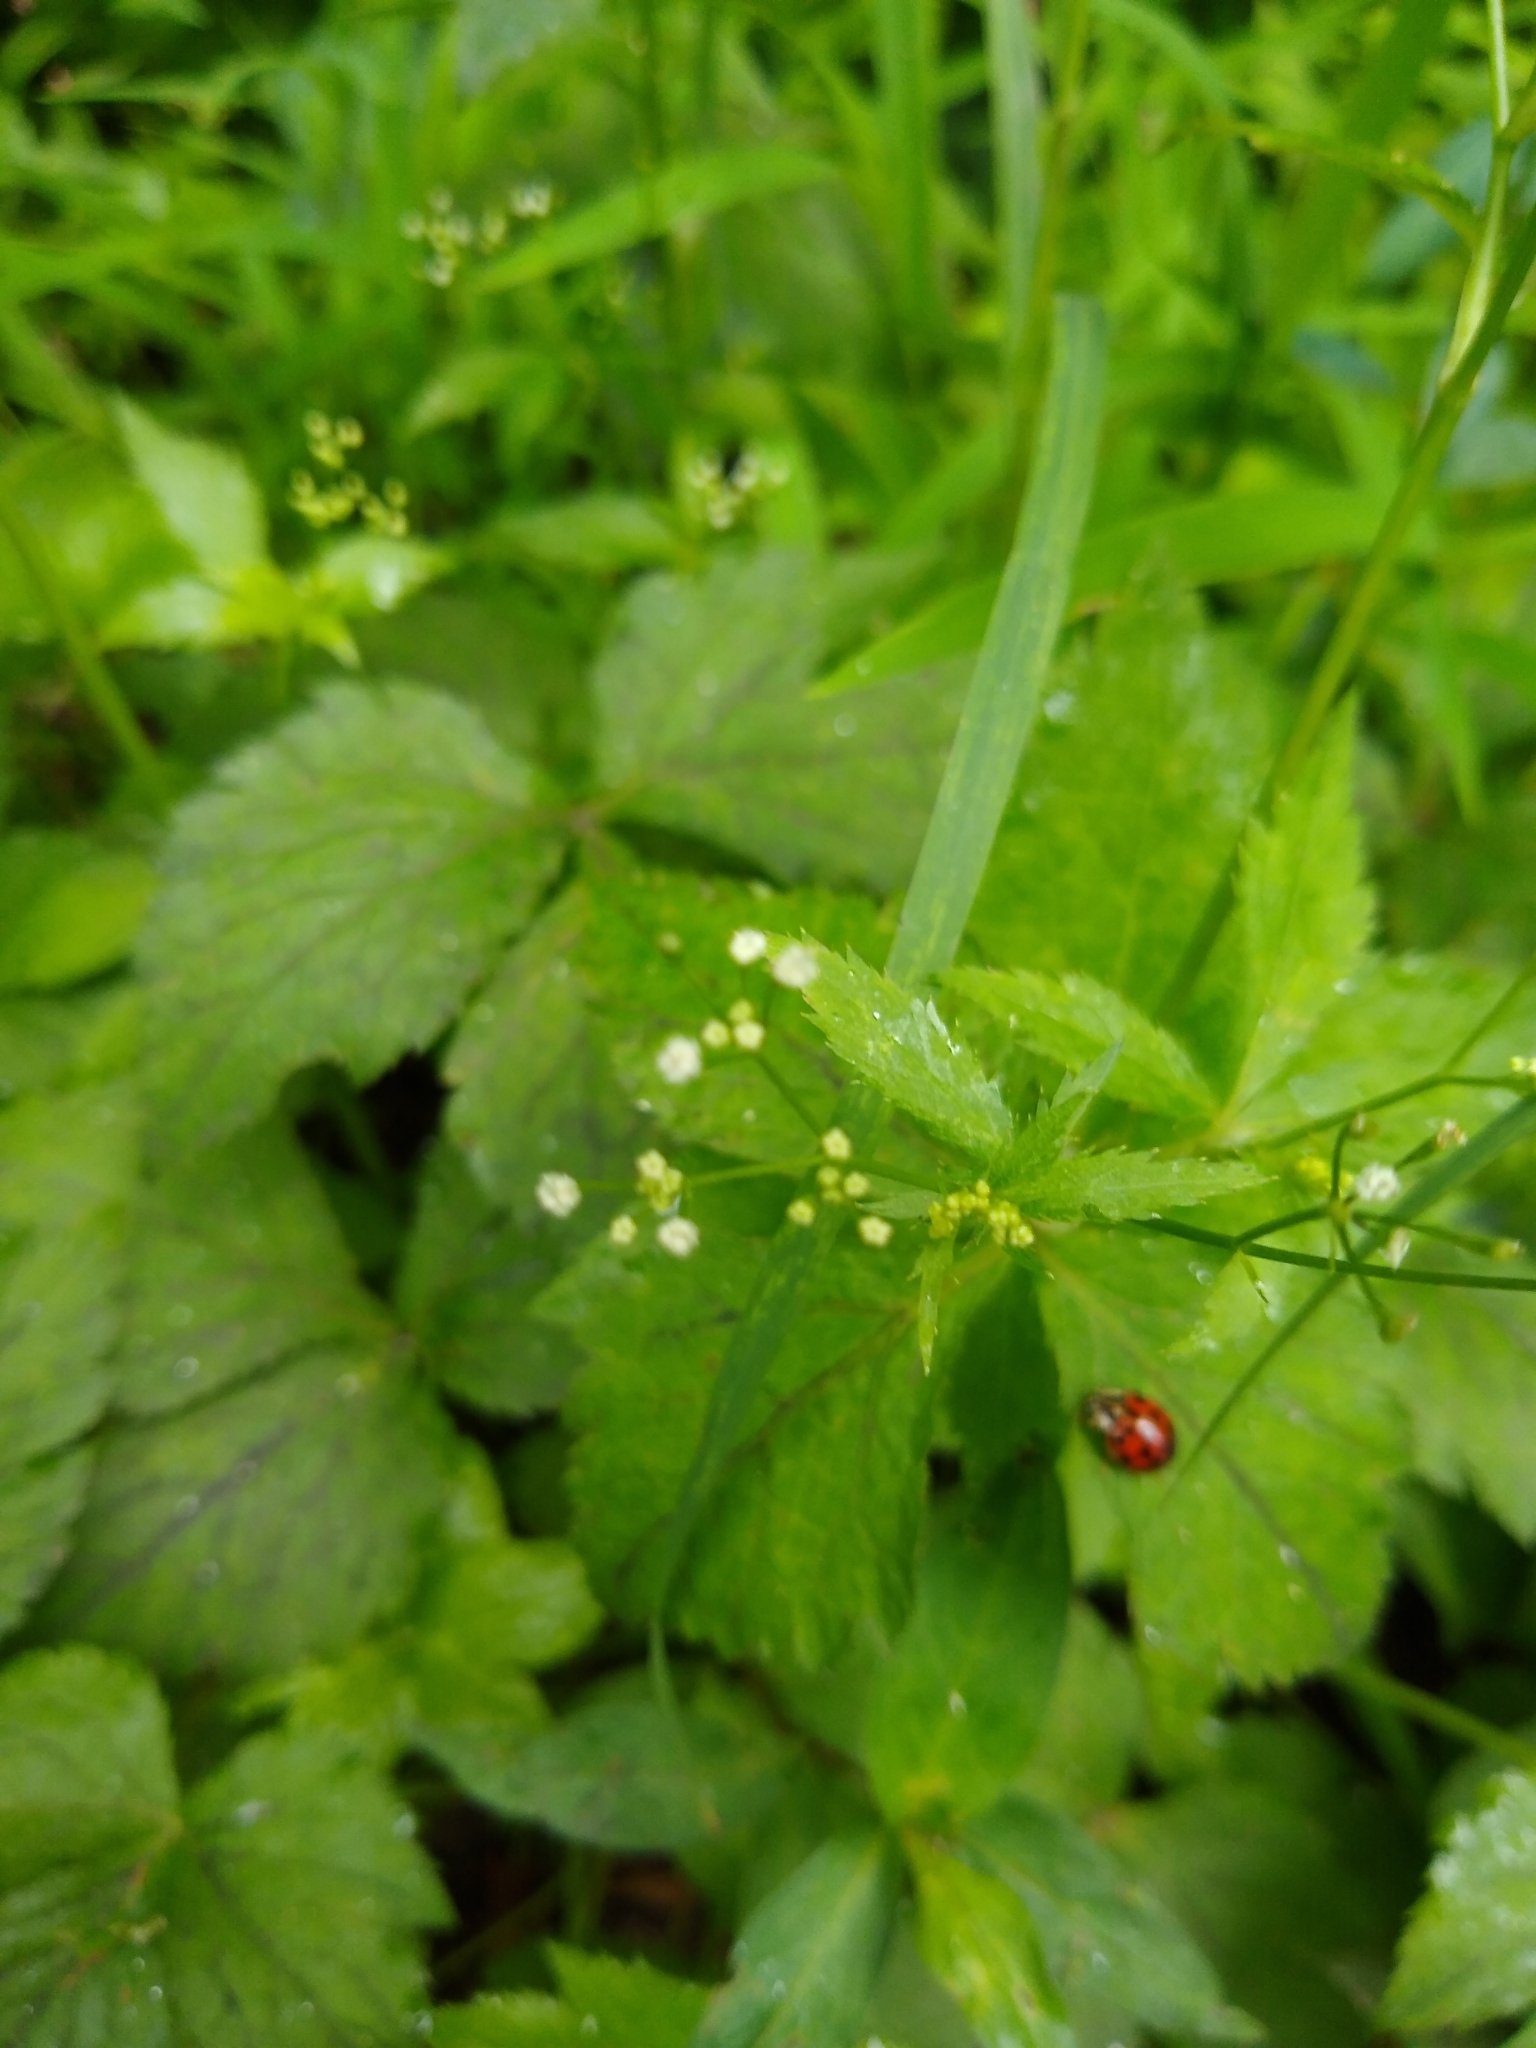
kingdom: Plantae
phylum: Tracheophyta
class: Magnoliopsida
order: Apiales
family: Apiaceae
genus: Cryptotaenia
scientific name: Cryptotaenia canadensis
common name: Honewort
